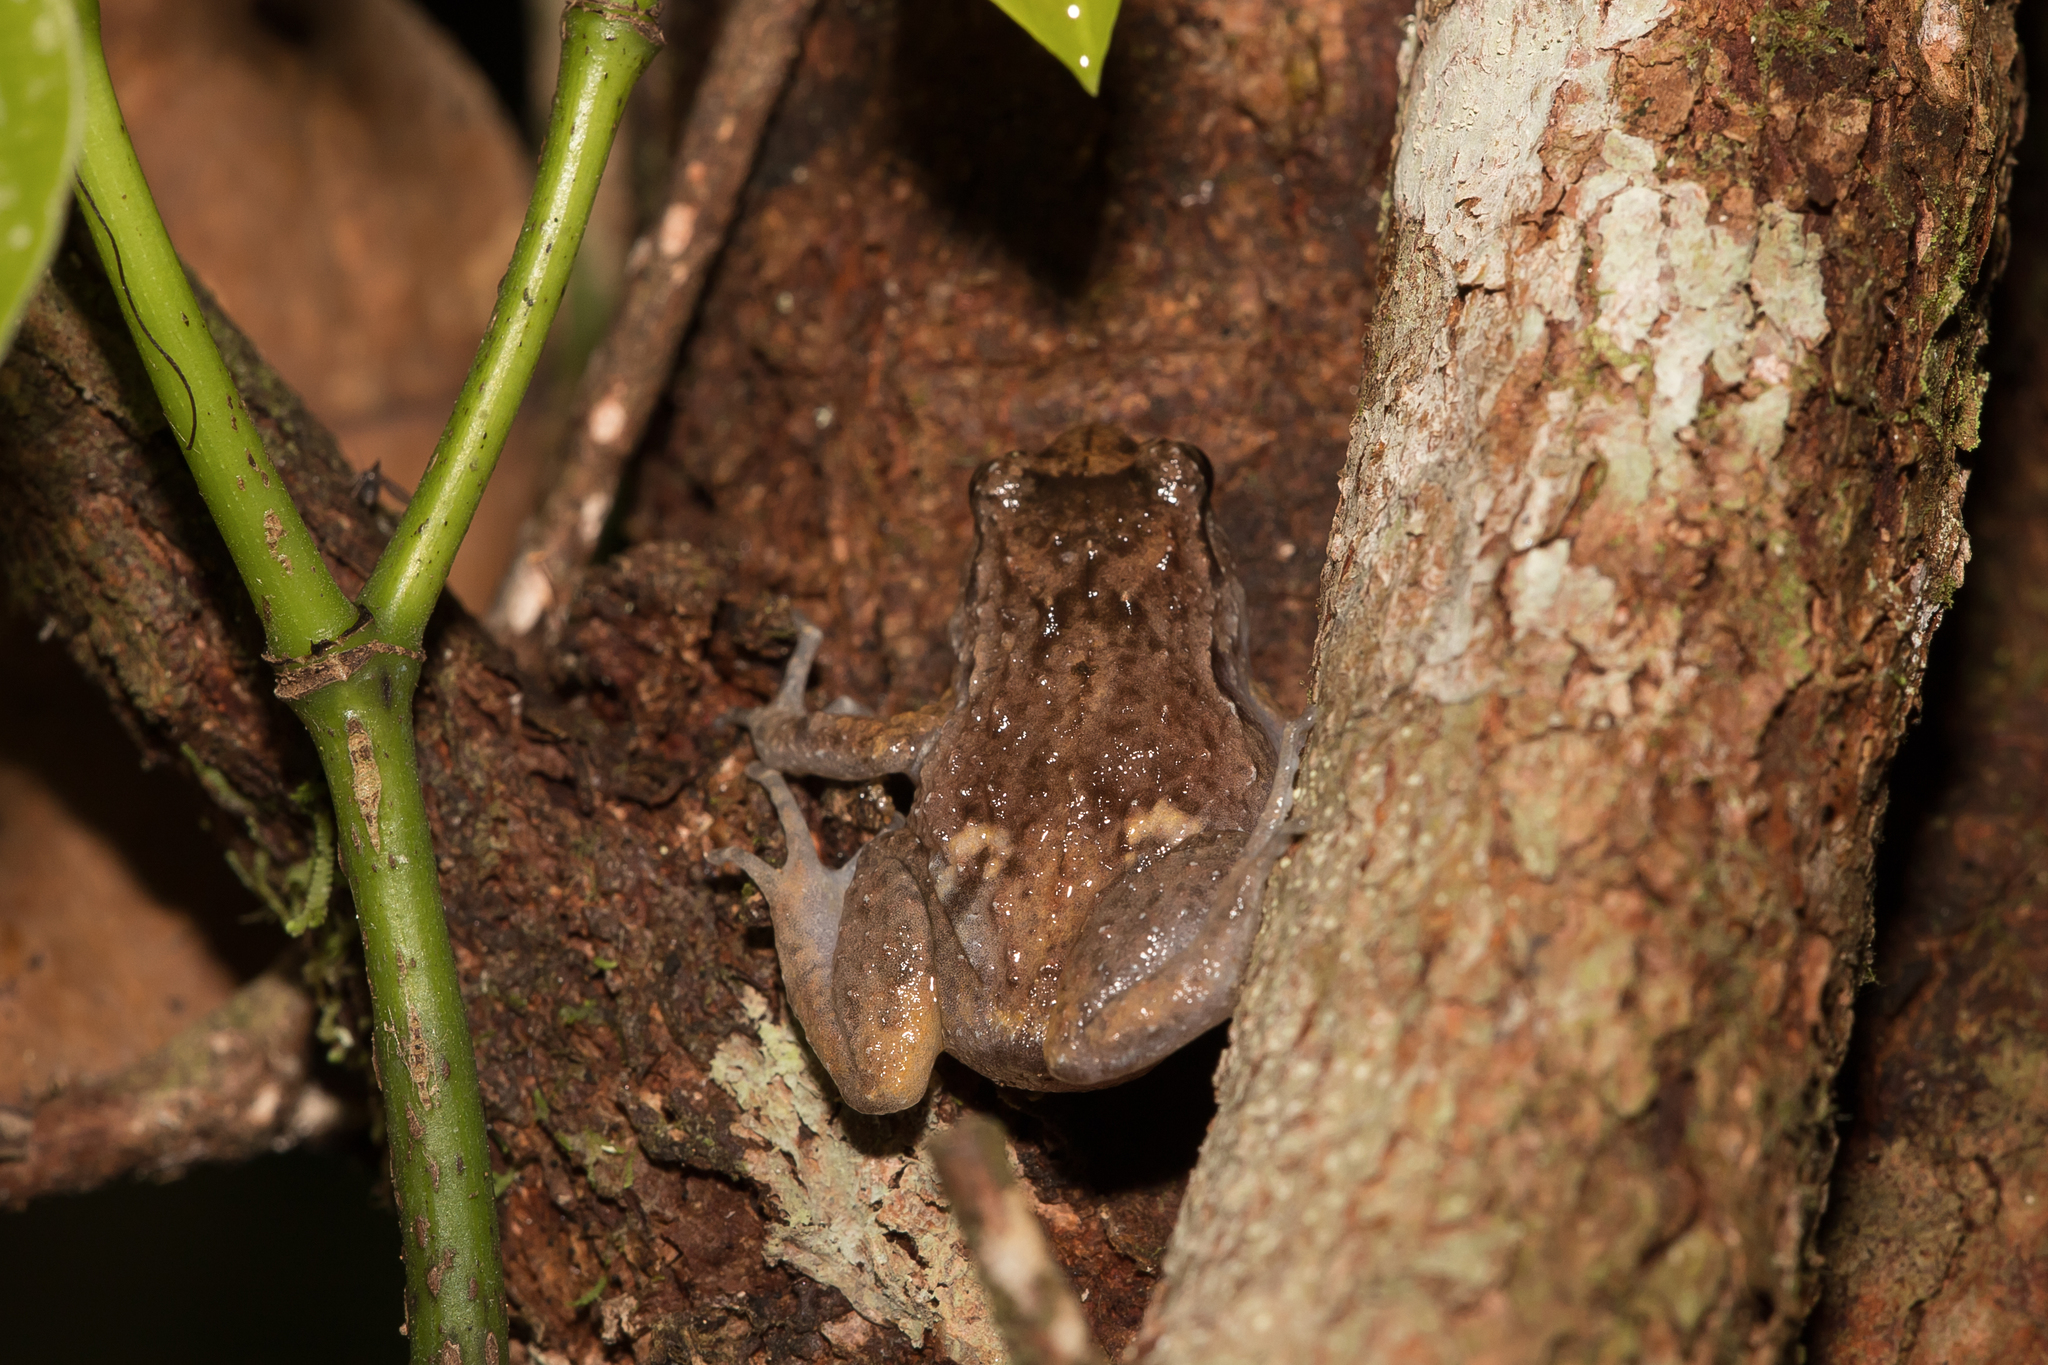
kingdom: Animalia
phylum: Chordata
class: Amphibia
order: Anura
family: Microhylidae
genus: Cophixalus
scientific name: Cophixalus ornatus
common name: Ornate frog
